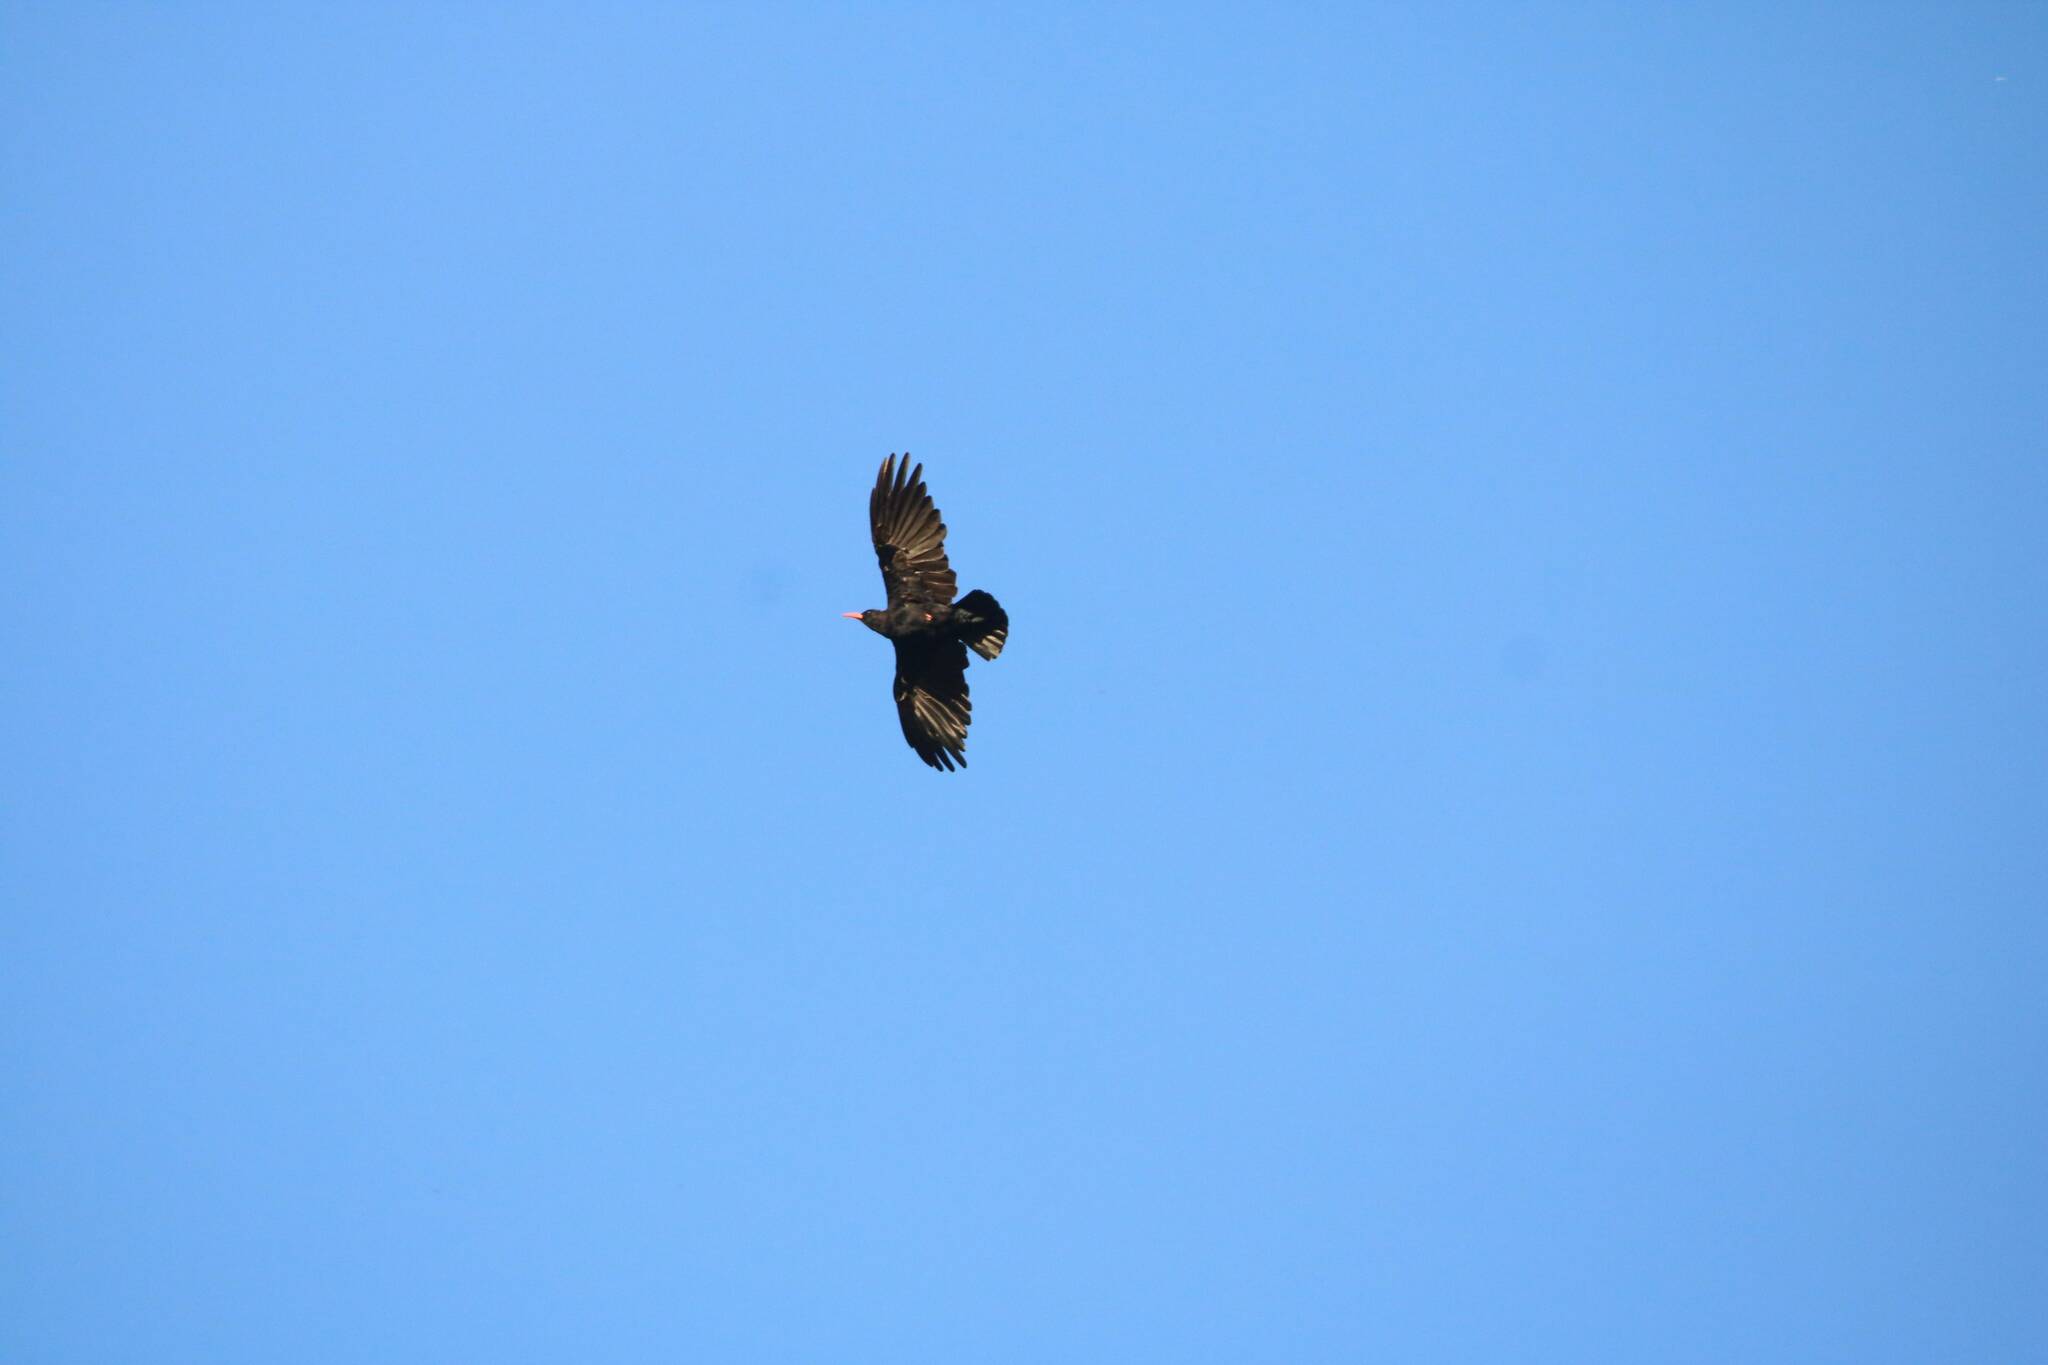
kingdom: Animalia
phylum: Chordata
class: Aves
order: Passeriformes
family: Corvidae
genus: Pyrrhocorax
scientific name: Pyrrhocorax pyrrhocorax
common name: Red-billed chough
